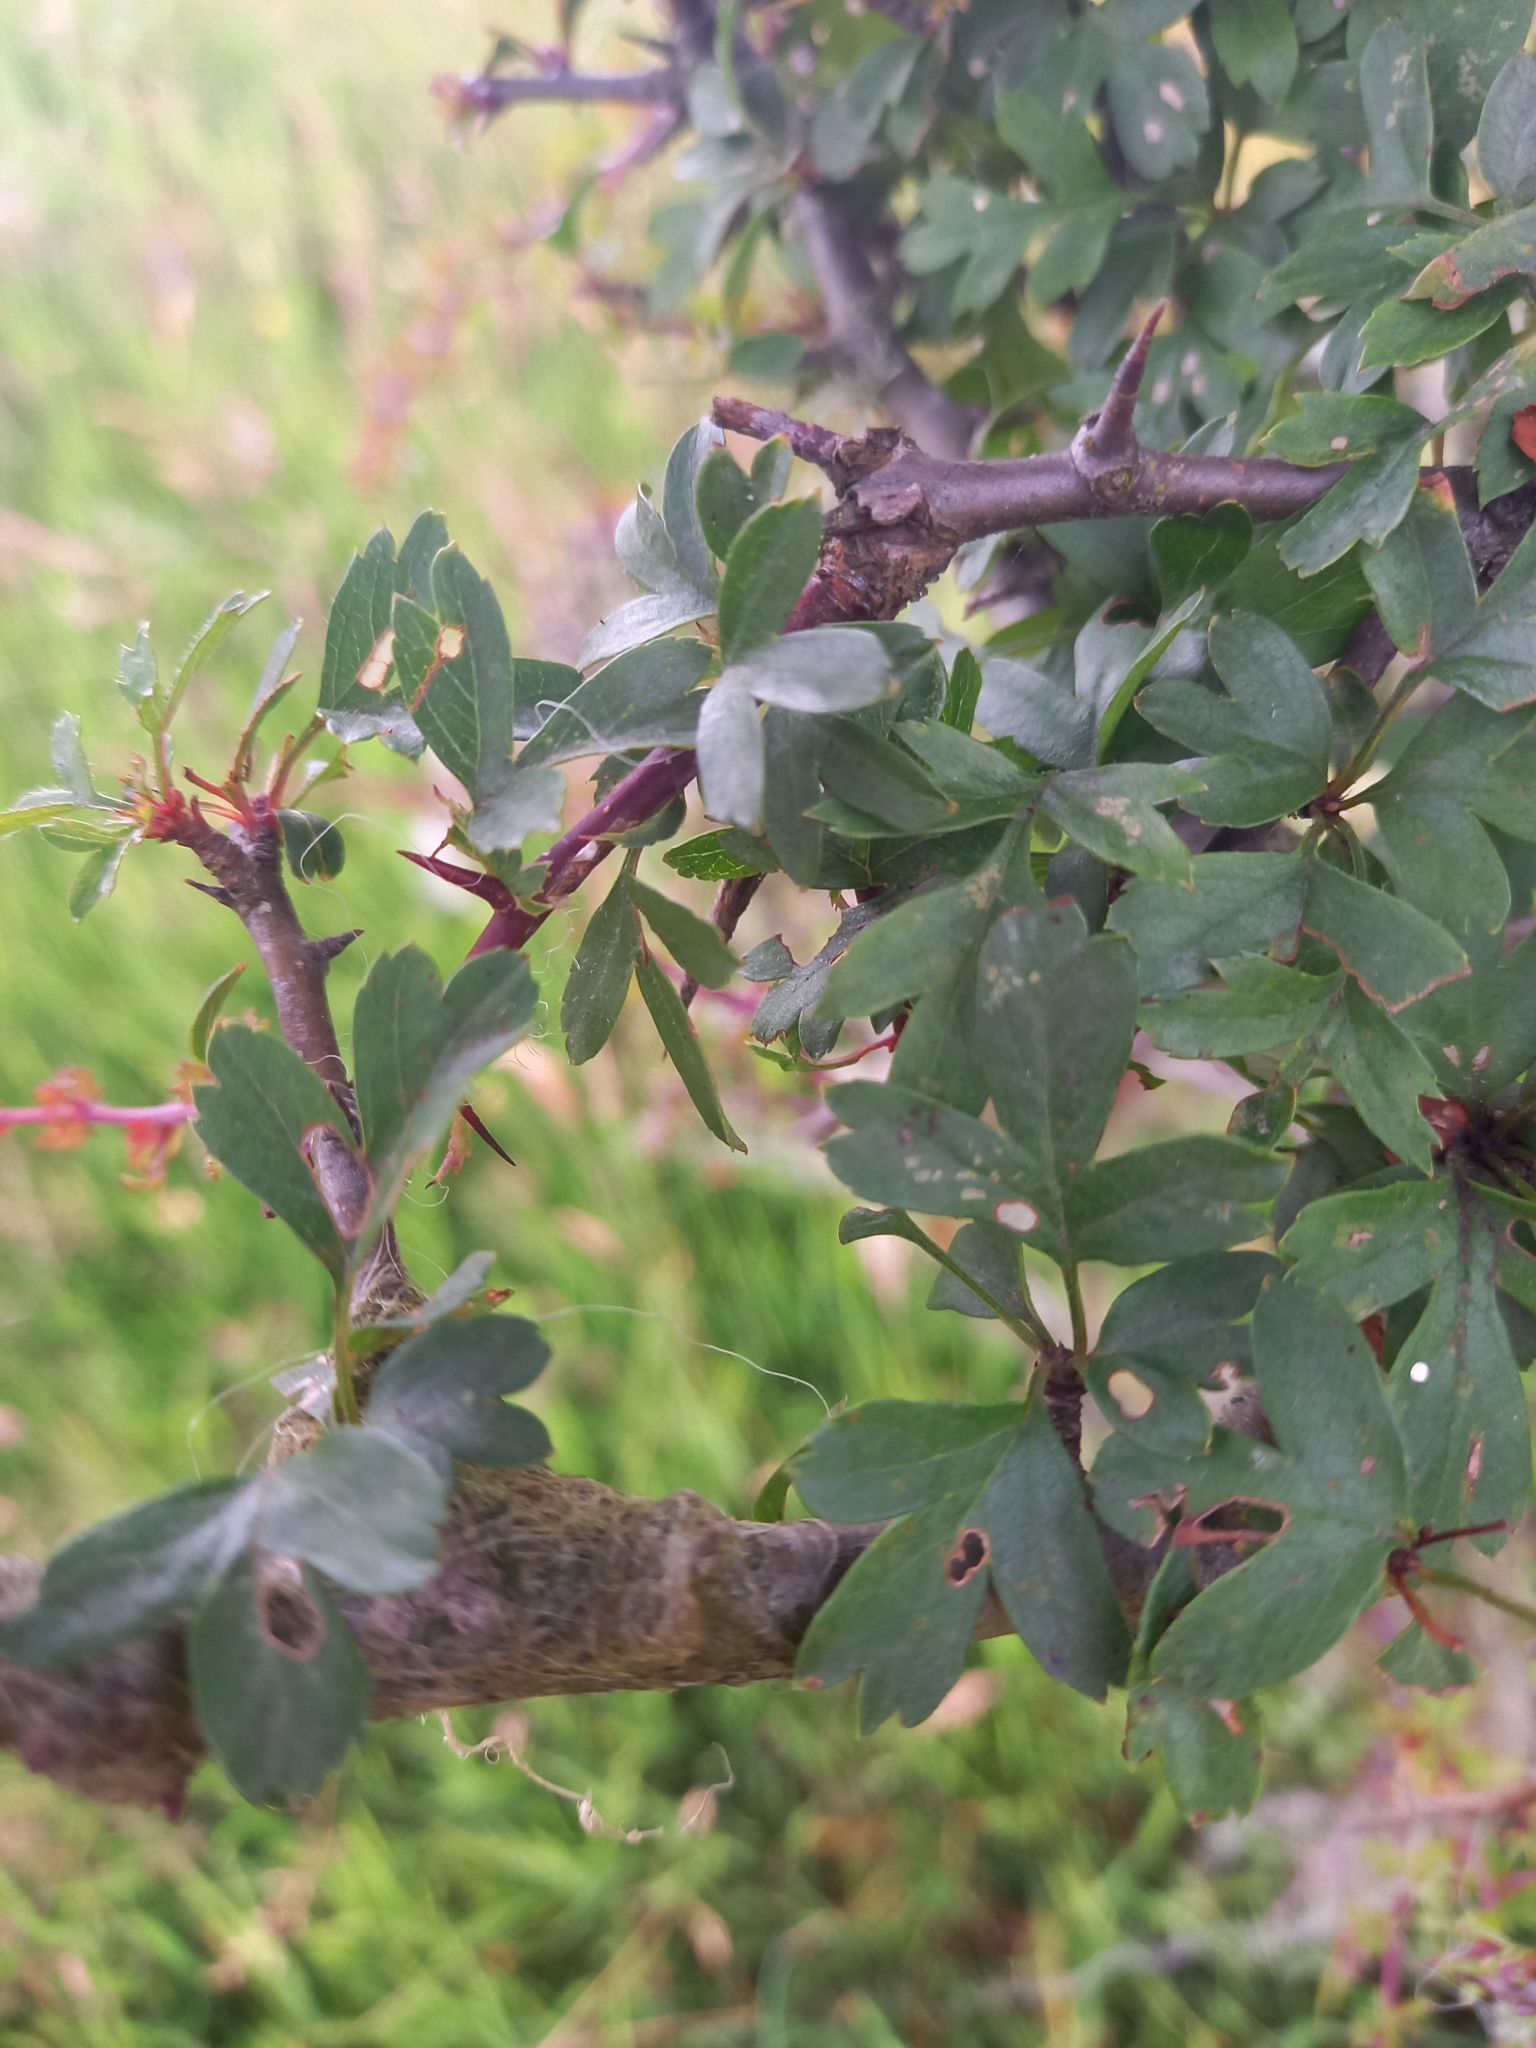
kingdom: Plantae
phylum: Tracheophyta
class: Magnoliopsida
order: Rosales
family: Rosaceae
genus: Crataegus
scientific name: Crataegus monogyna
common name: Hawthorn
